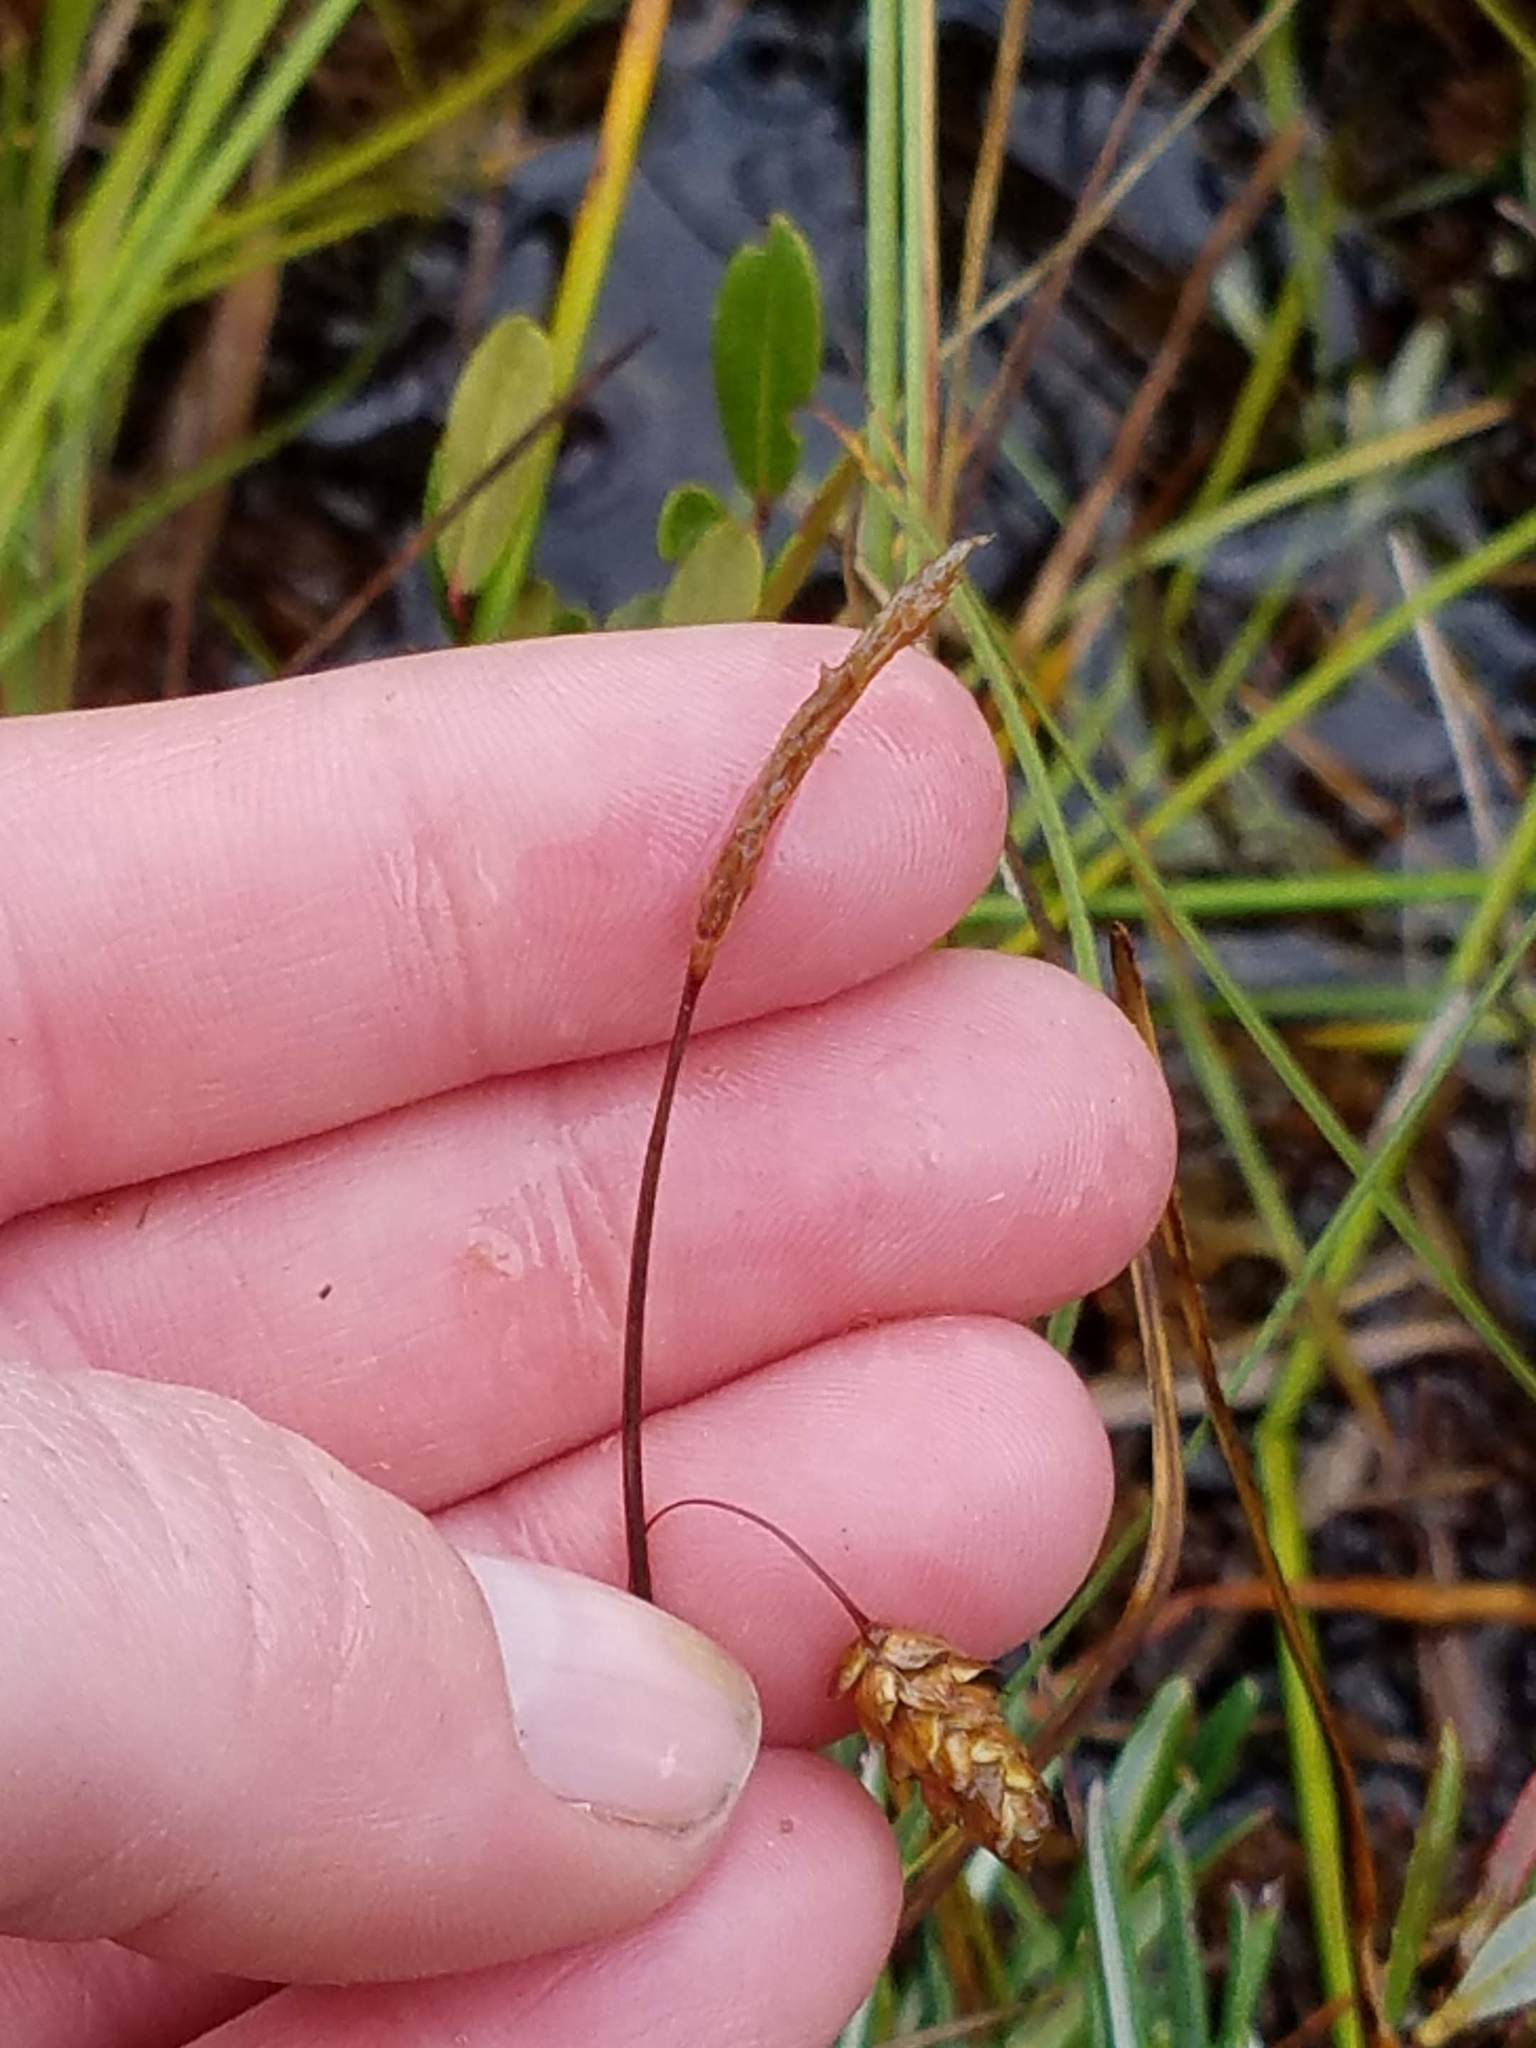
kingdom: Plantae
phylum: Tracheophyta
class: Liliopsida
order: Poales
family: Cyperaceae
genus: Carex
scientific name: Carex limosa
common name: Bog sedge
